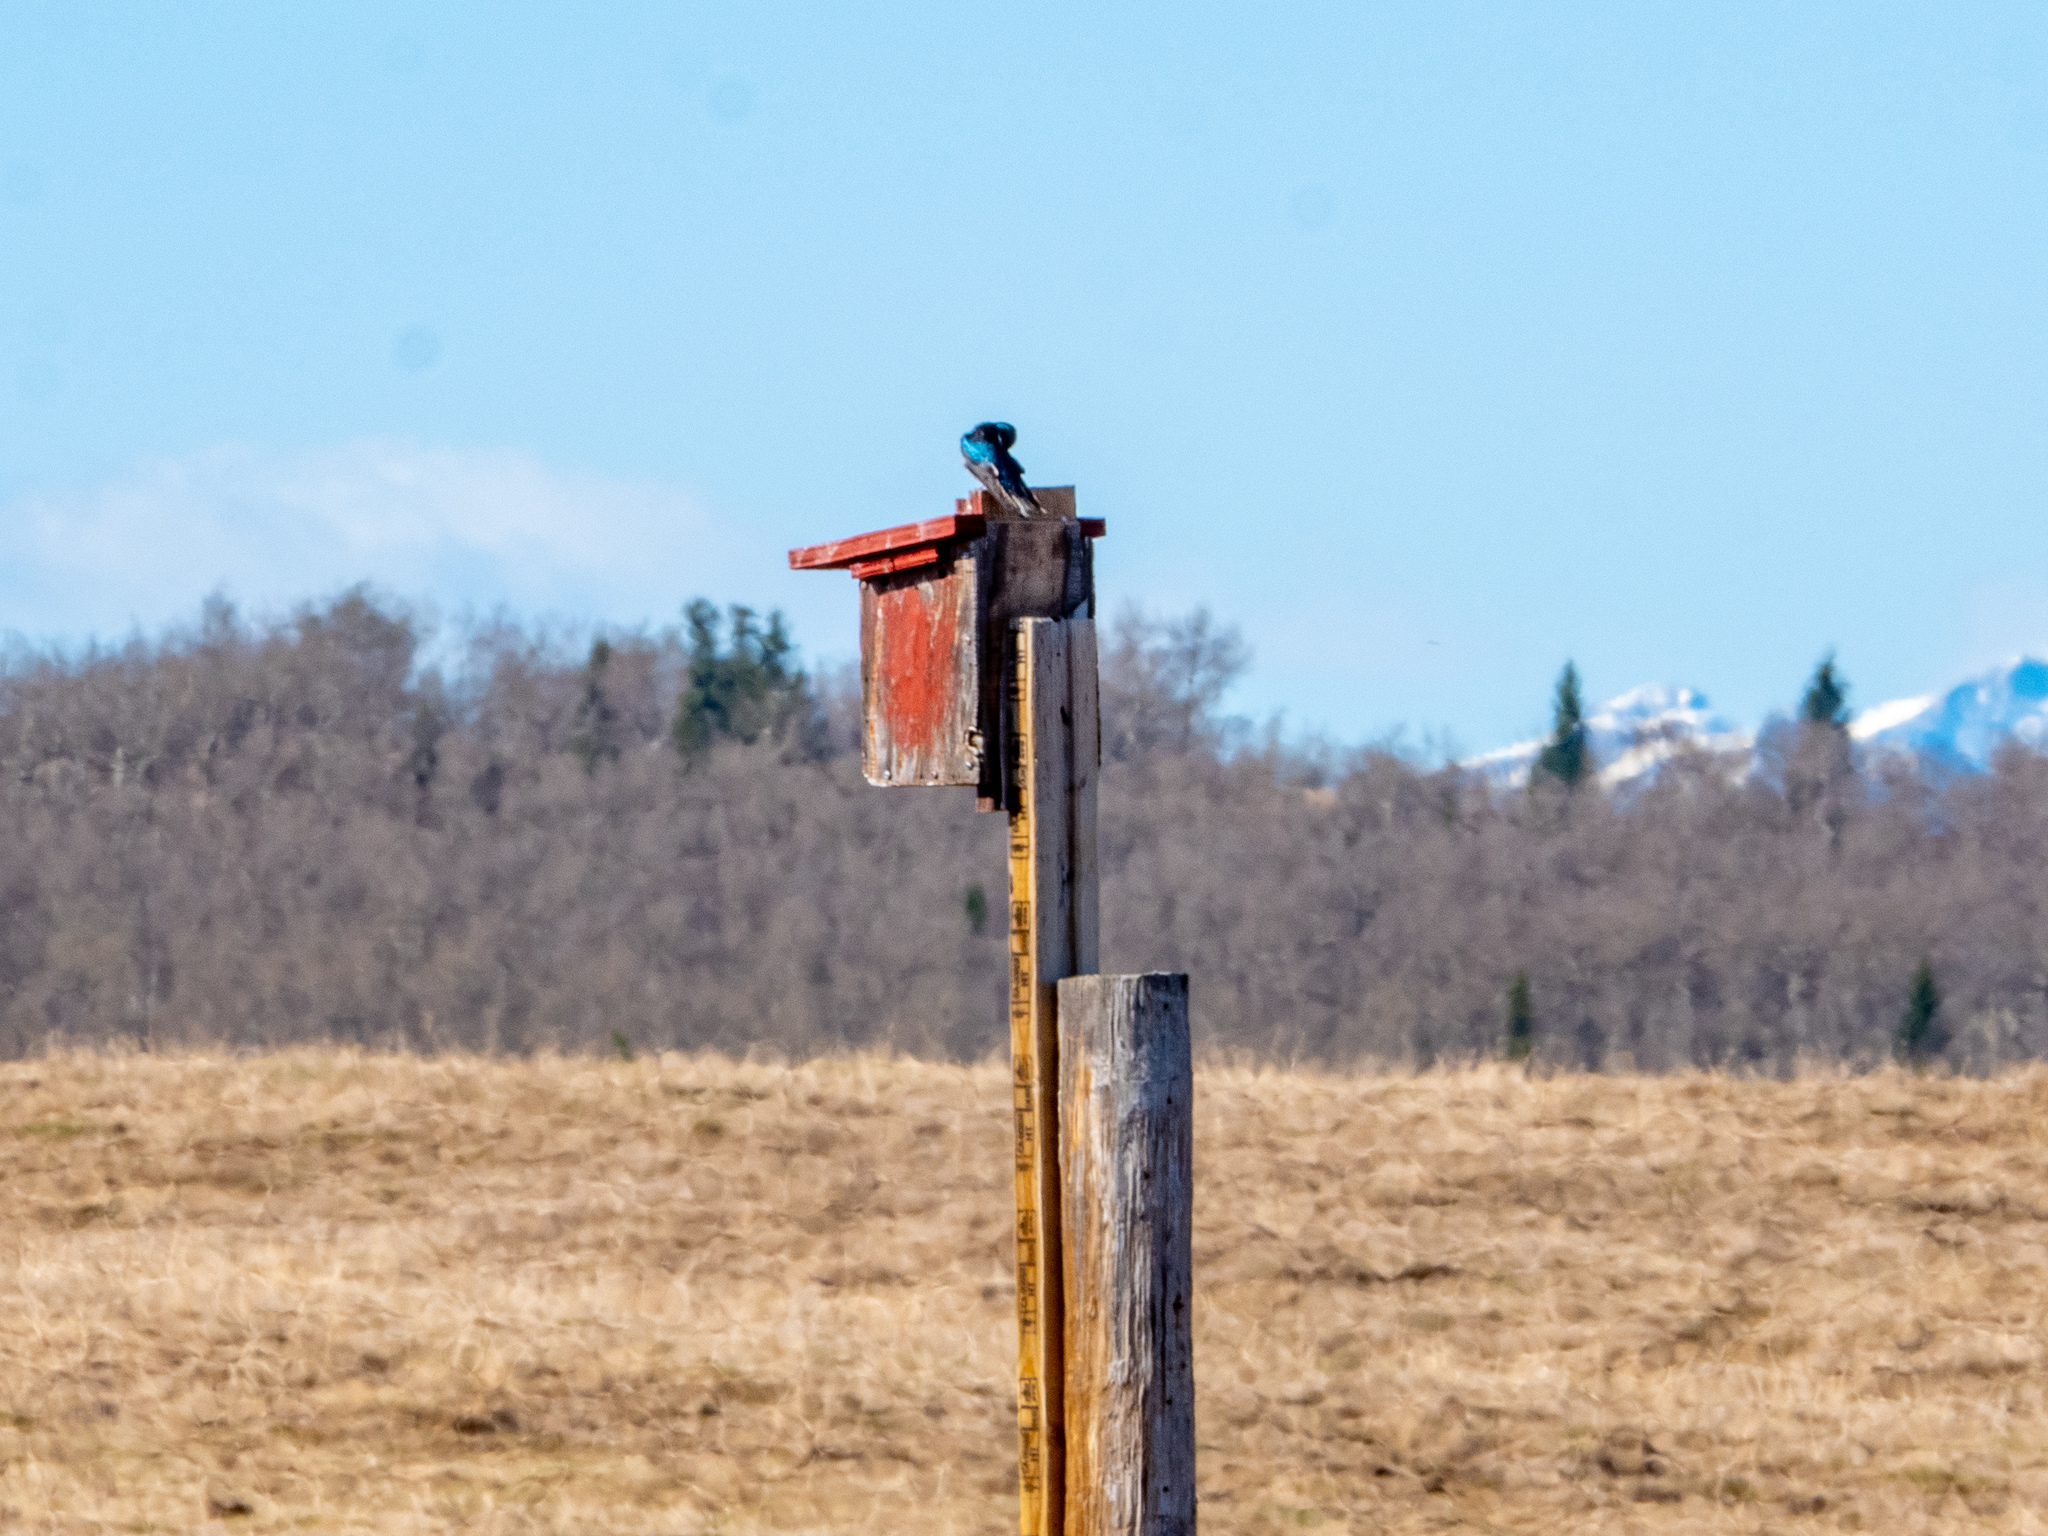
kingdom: Animalia
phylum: Chordata
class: Aves
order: Passeriformes
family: Hirundinidae
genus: Tachycineta
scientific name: Tachycineta bicolor
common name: Tree swallow
